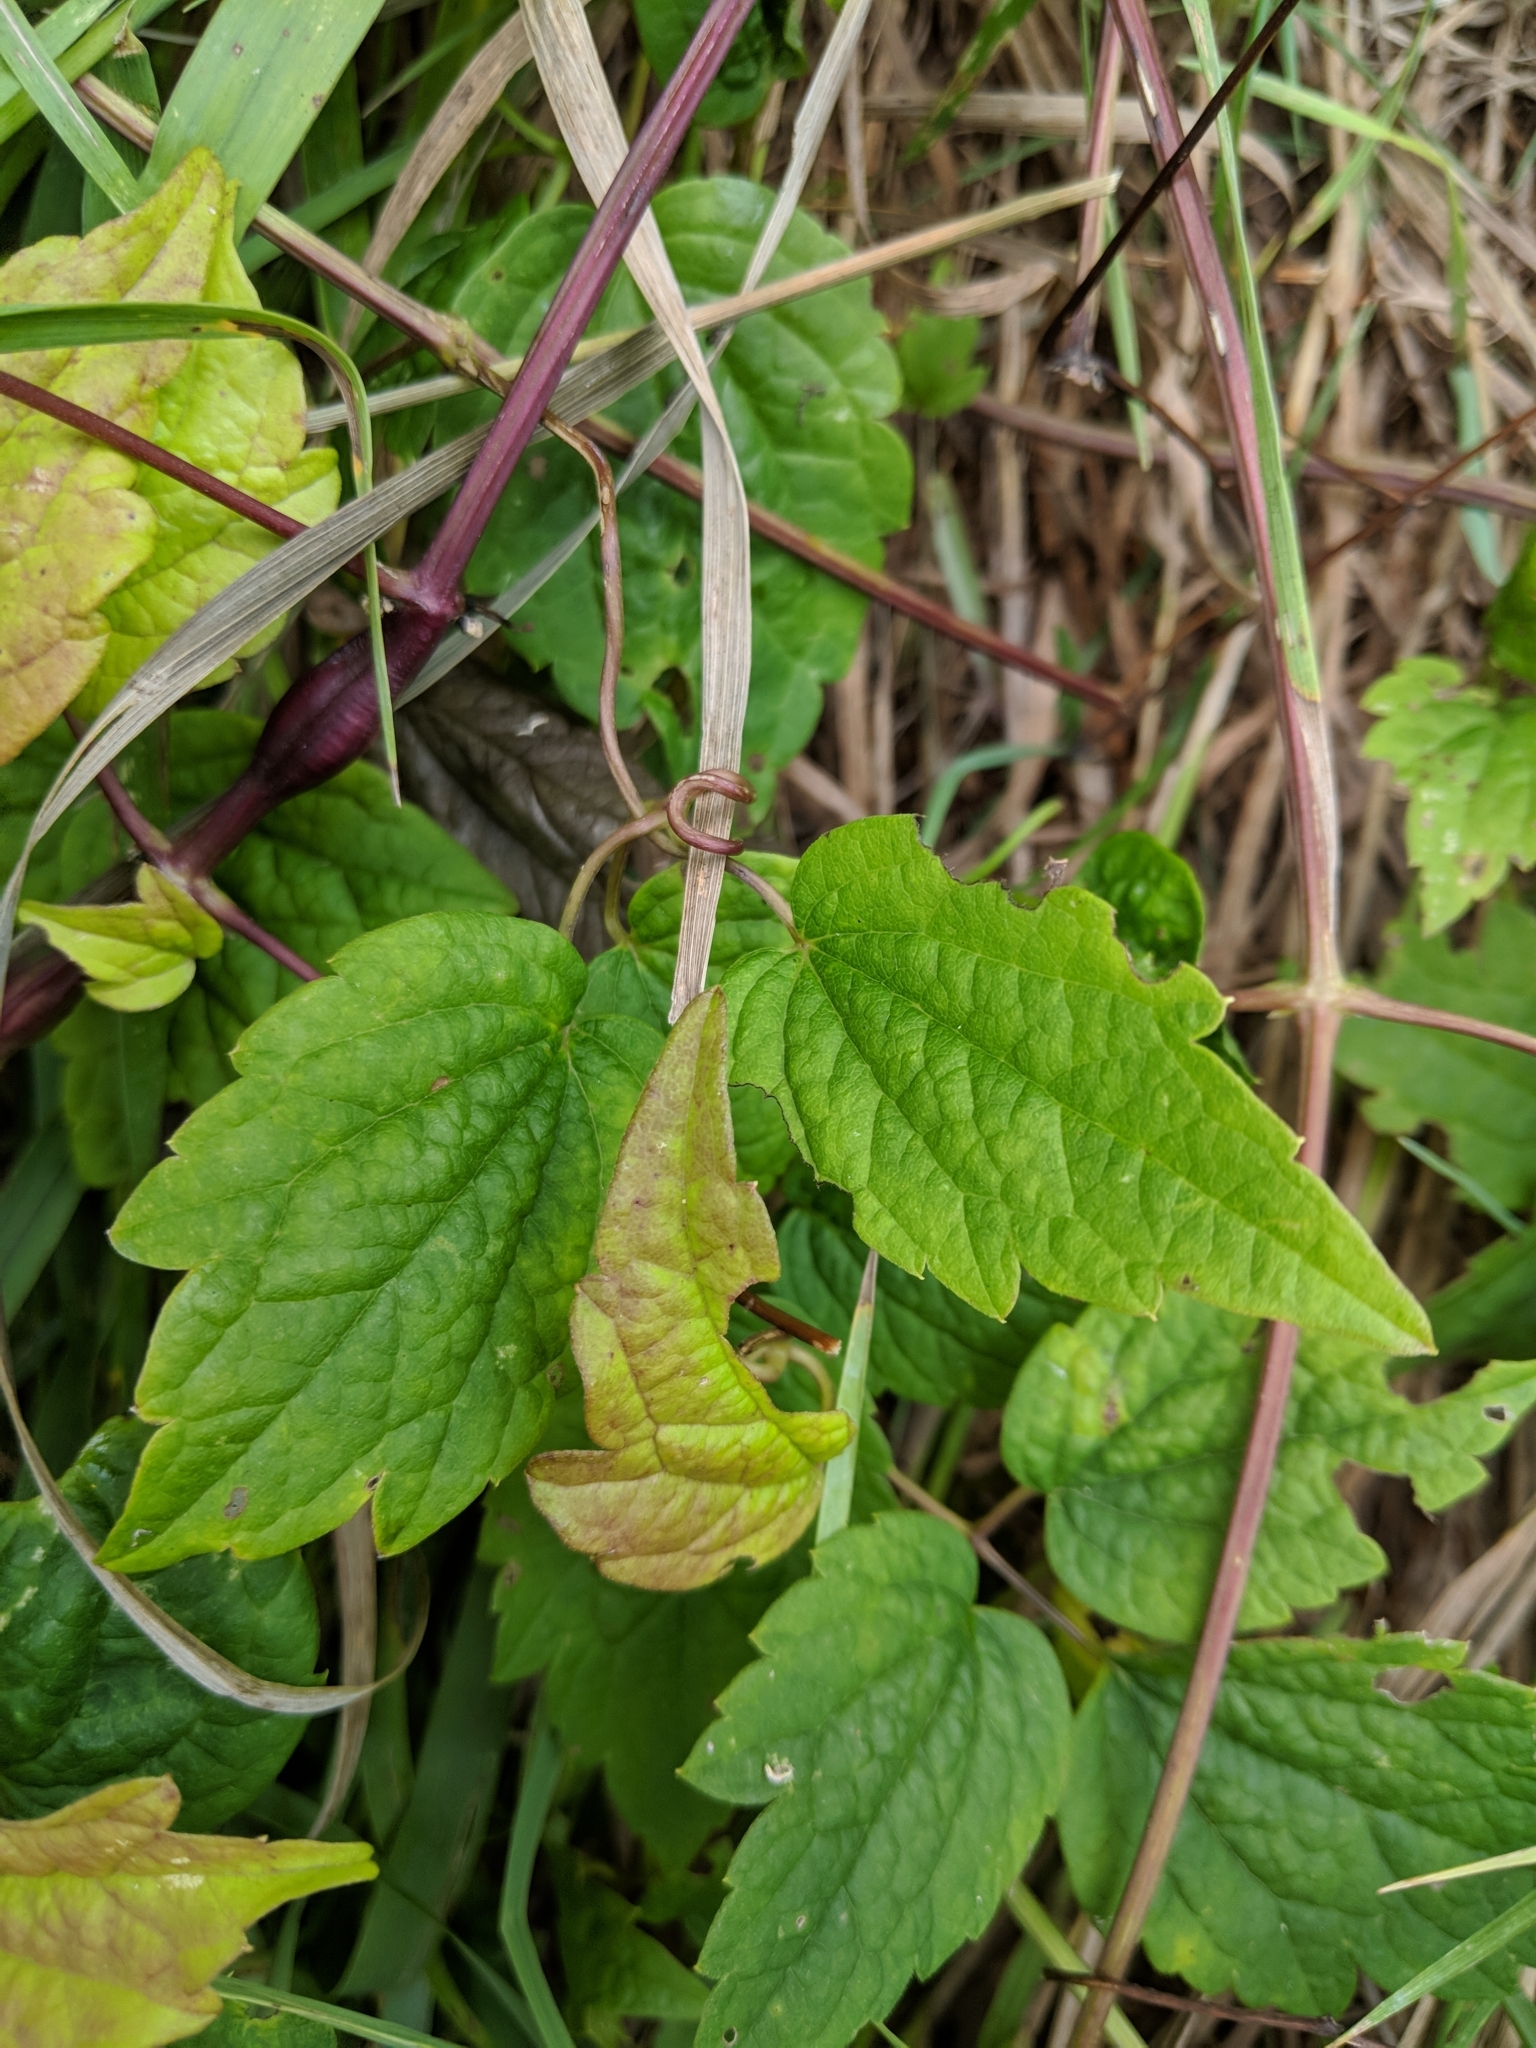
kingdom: Plantae
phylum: Tracheophyta
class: Magnoliopsida
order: Ranunculales
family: Ranunculaceae
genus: Clematis
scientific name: Clematis virginiana
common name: Virgin's-bower
